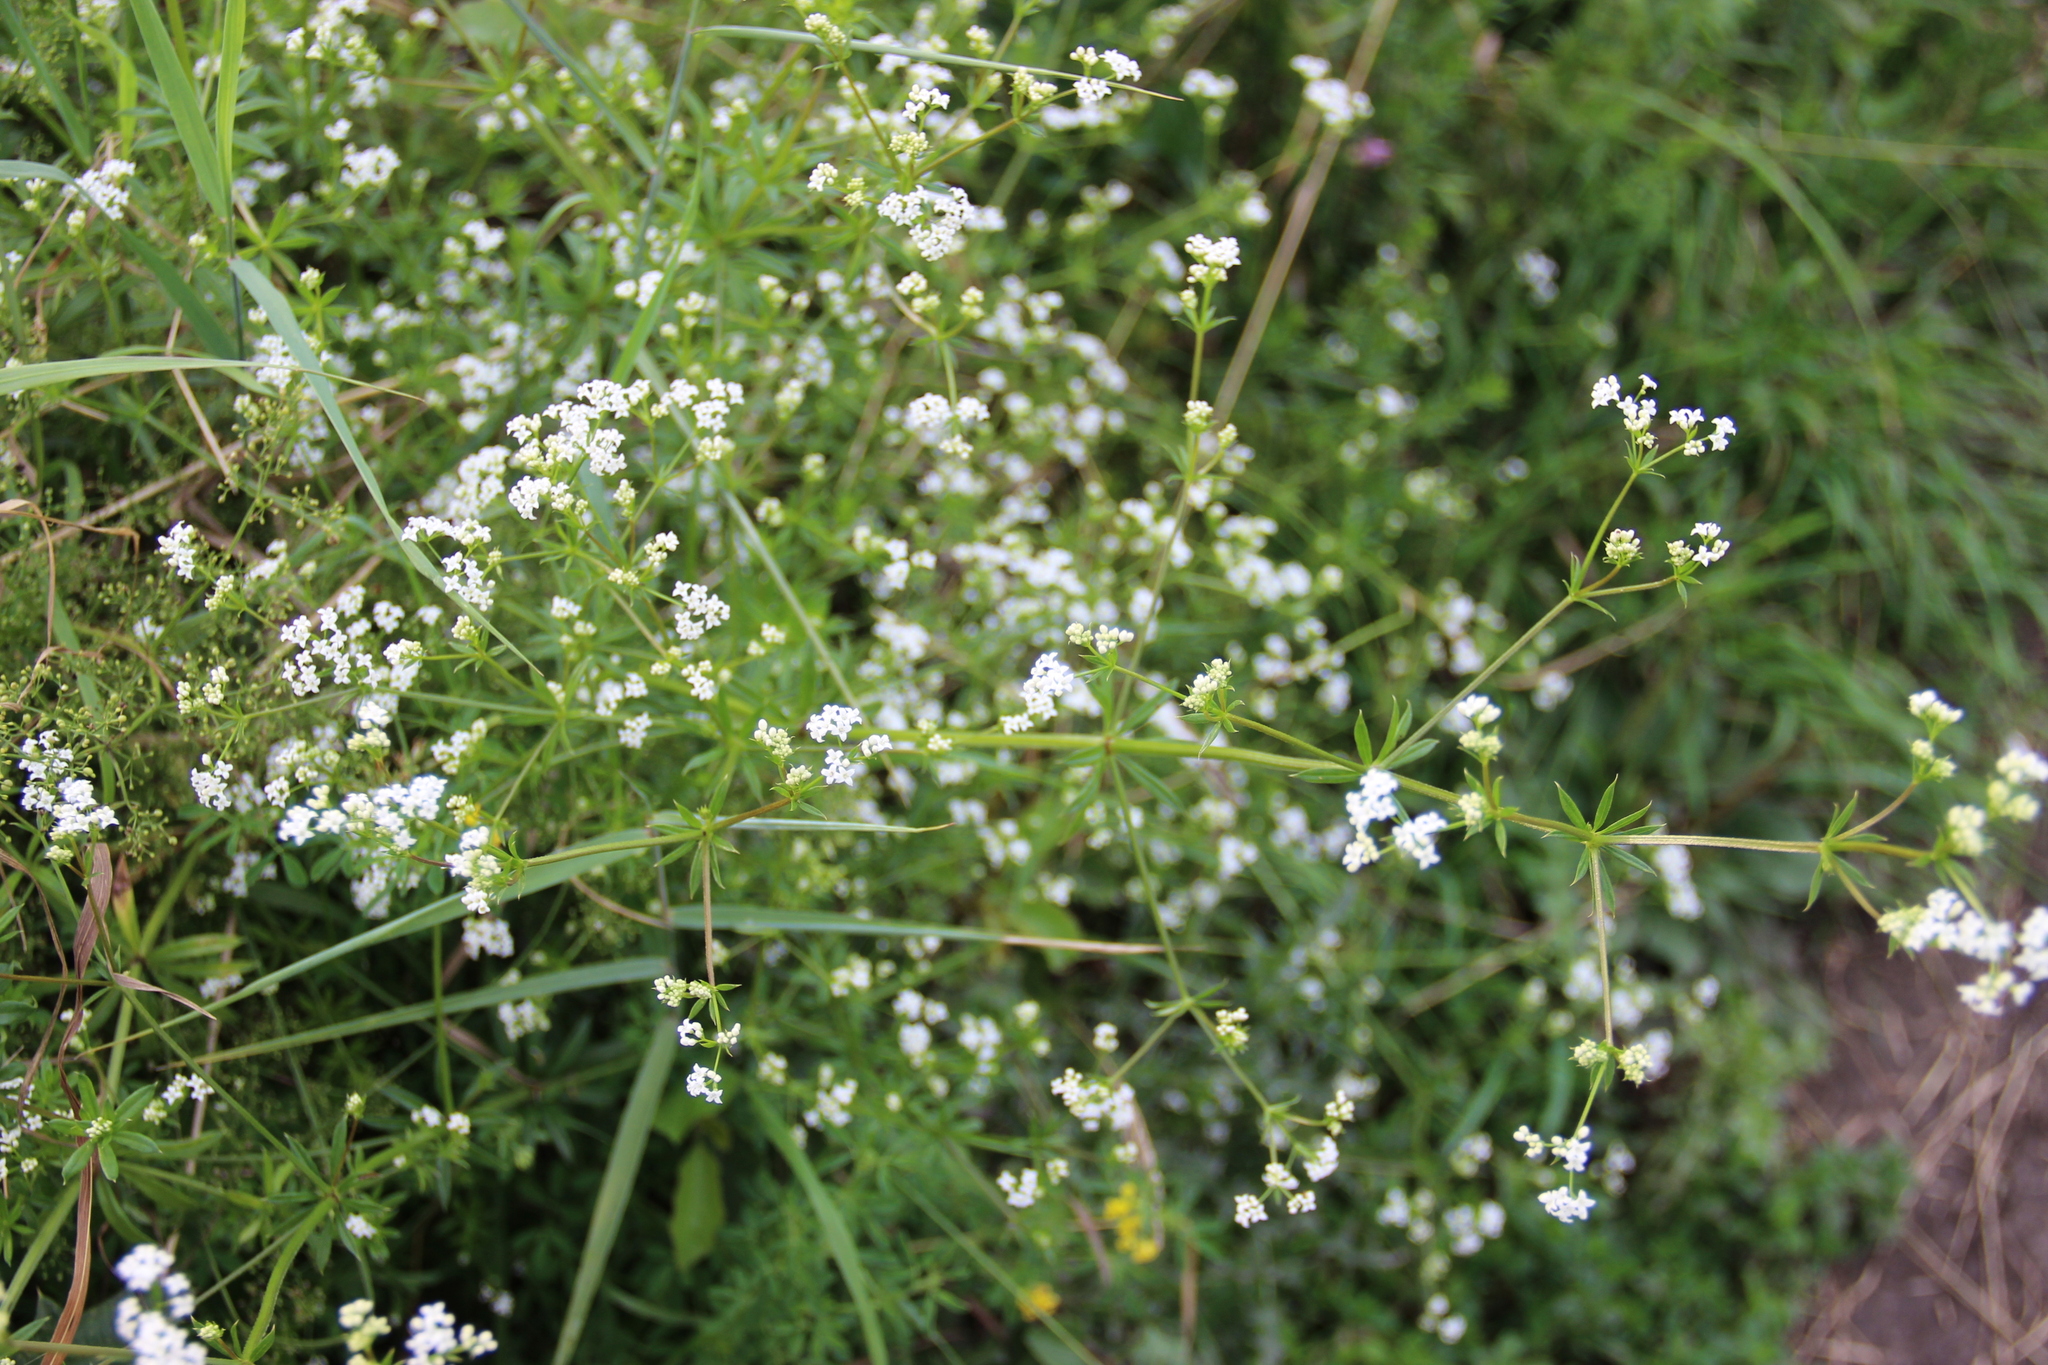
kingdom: Plantae
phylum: Tracheophyta
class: Magnoliopsida
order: Gentianales
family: Rubiaceae
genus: Galium
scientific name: Galium rivale
